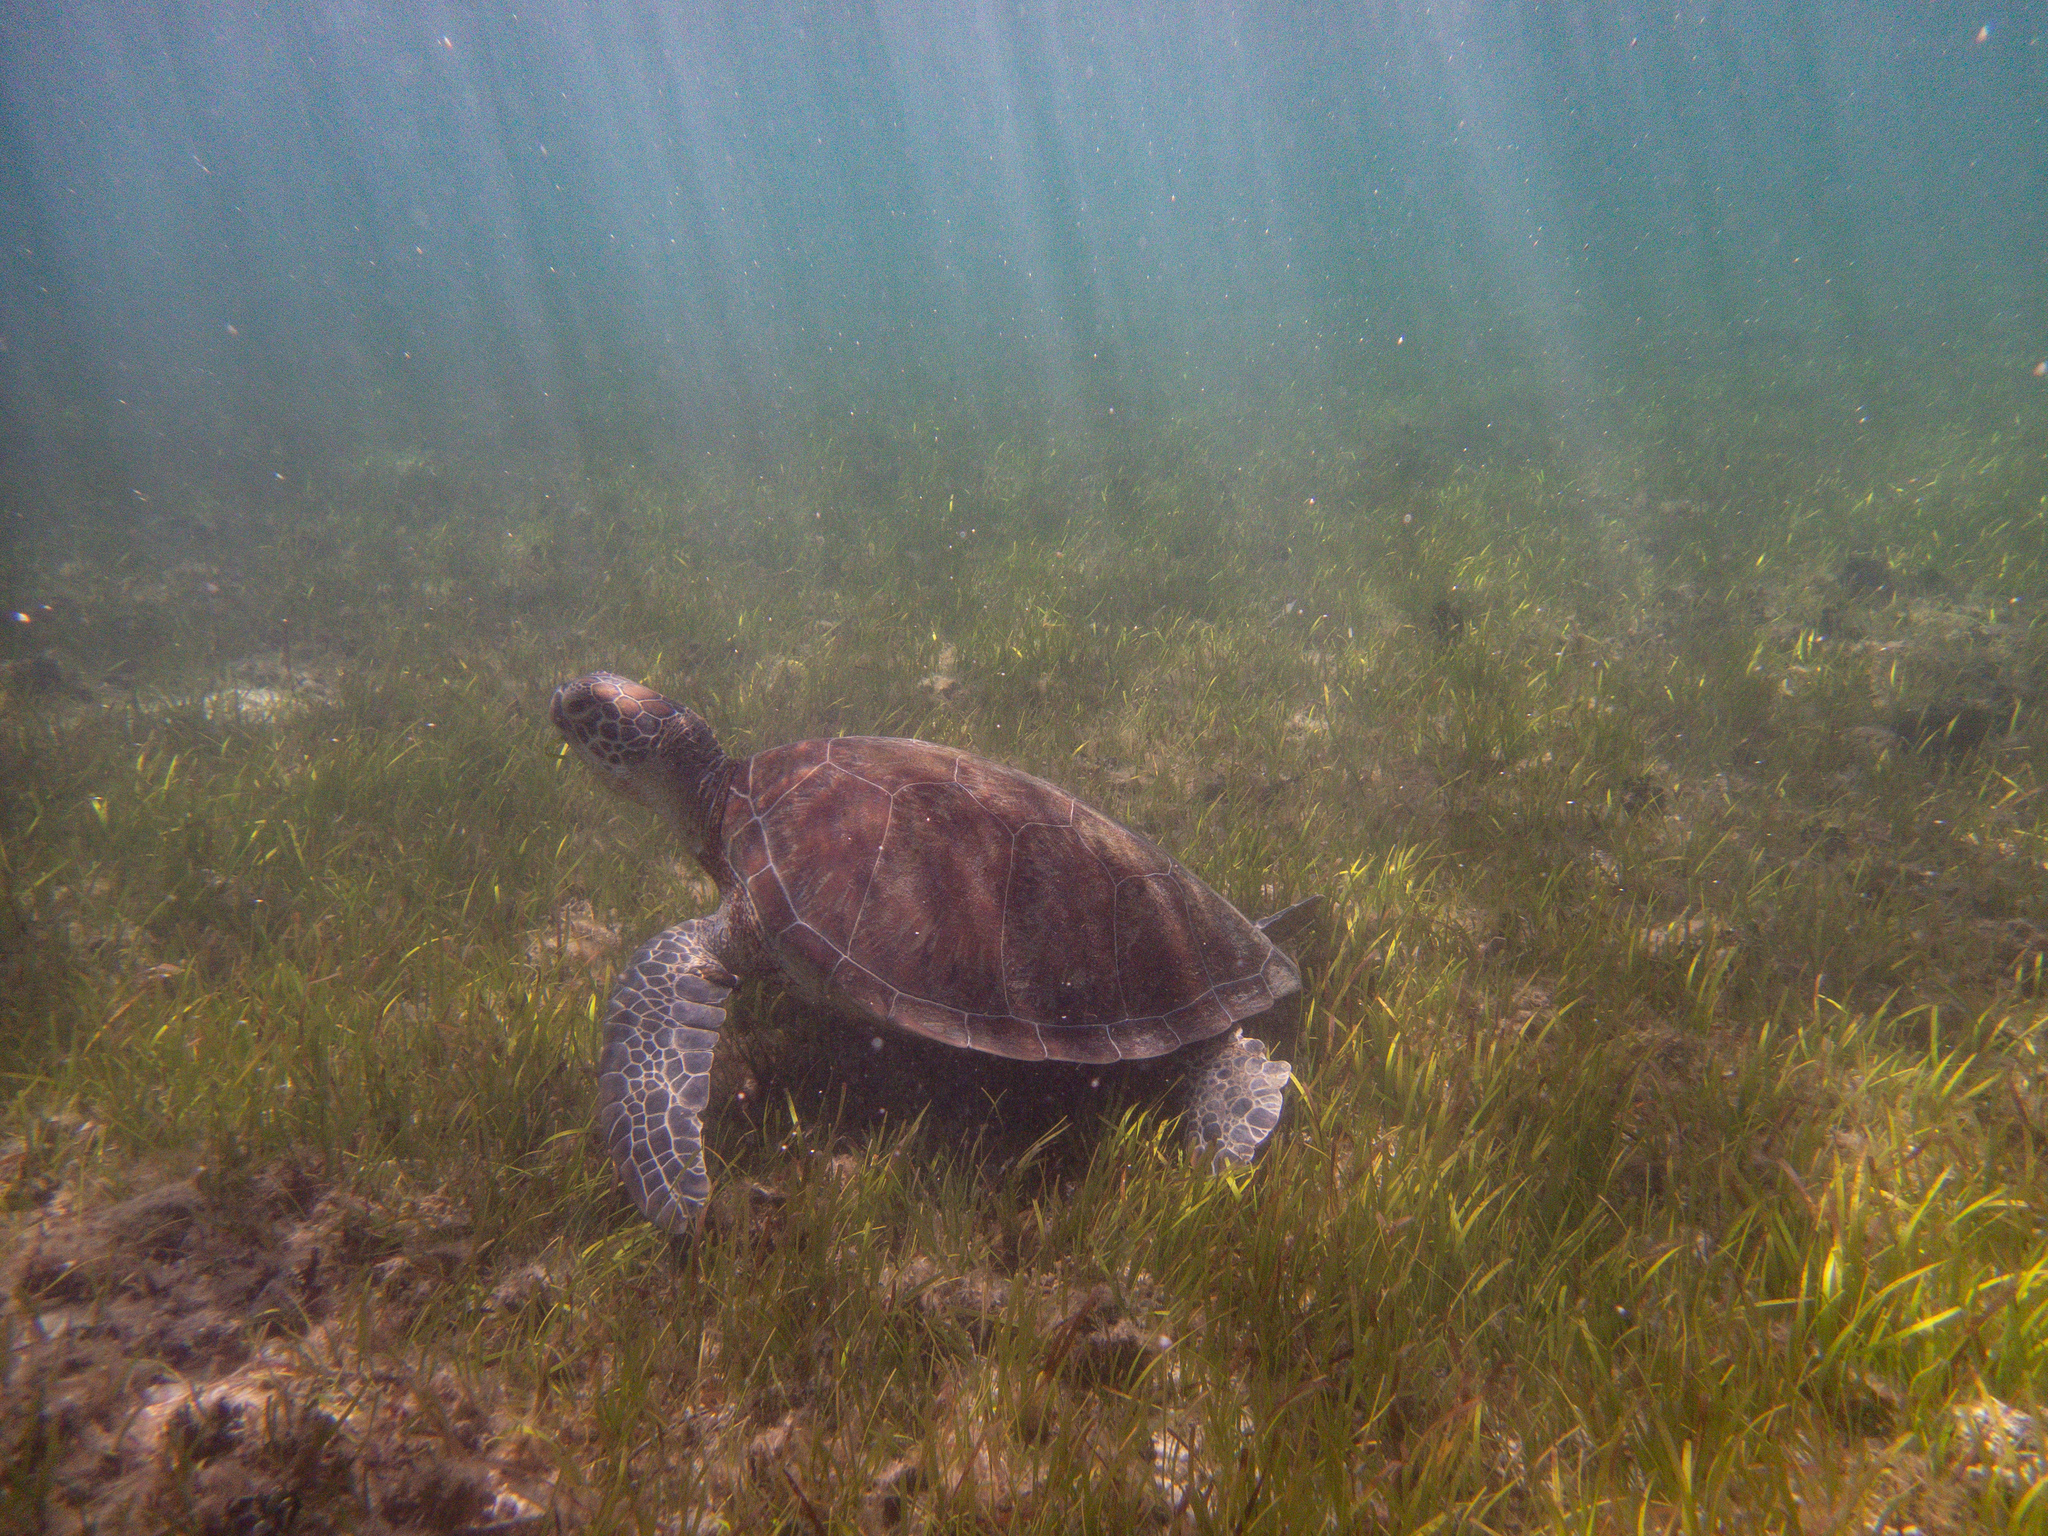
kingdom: Animalia
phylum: Chordata
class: Testudines
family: Cheloniidae
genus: Chelonia
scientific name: Chelonia mydas
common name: Green turtle
